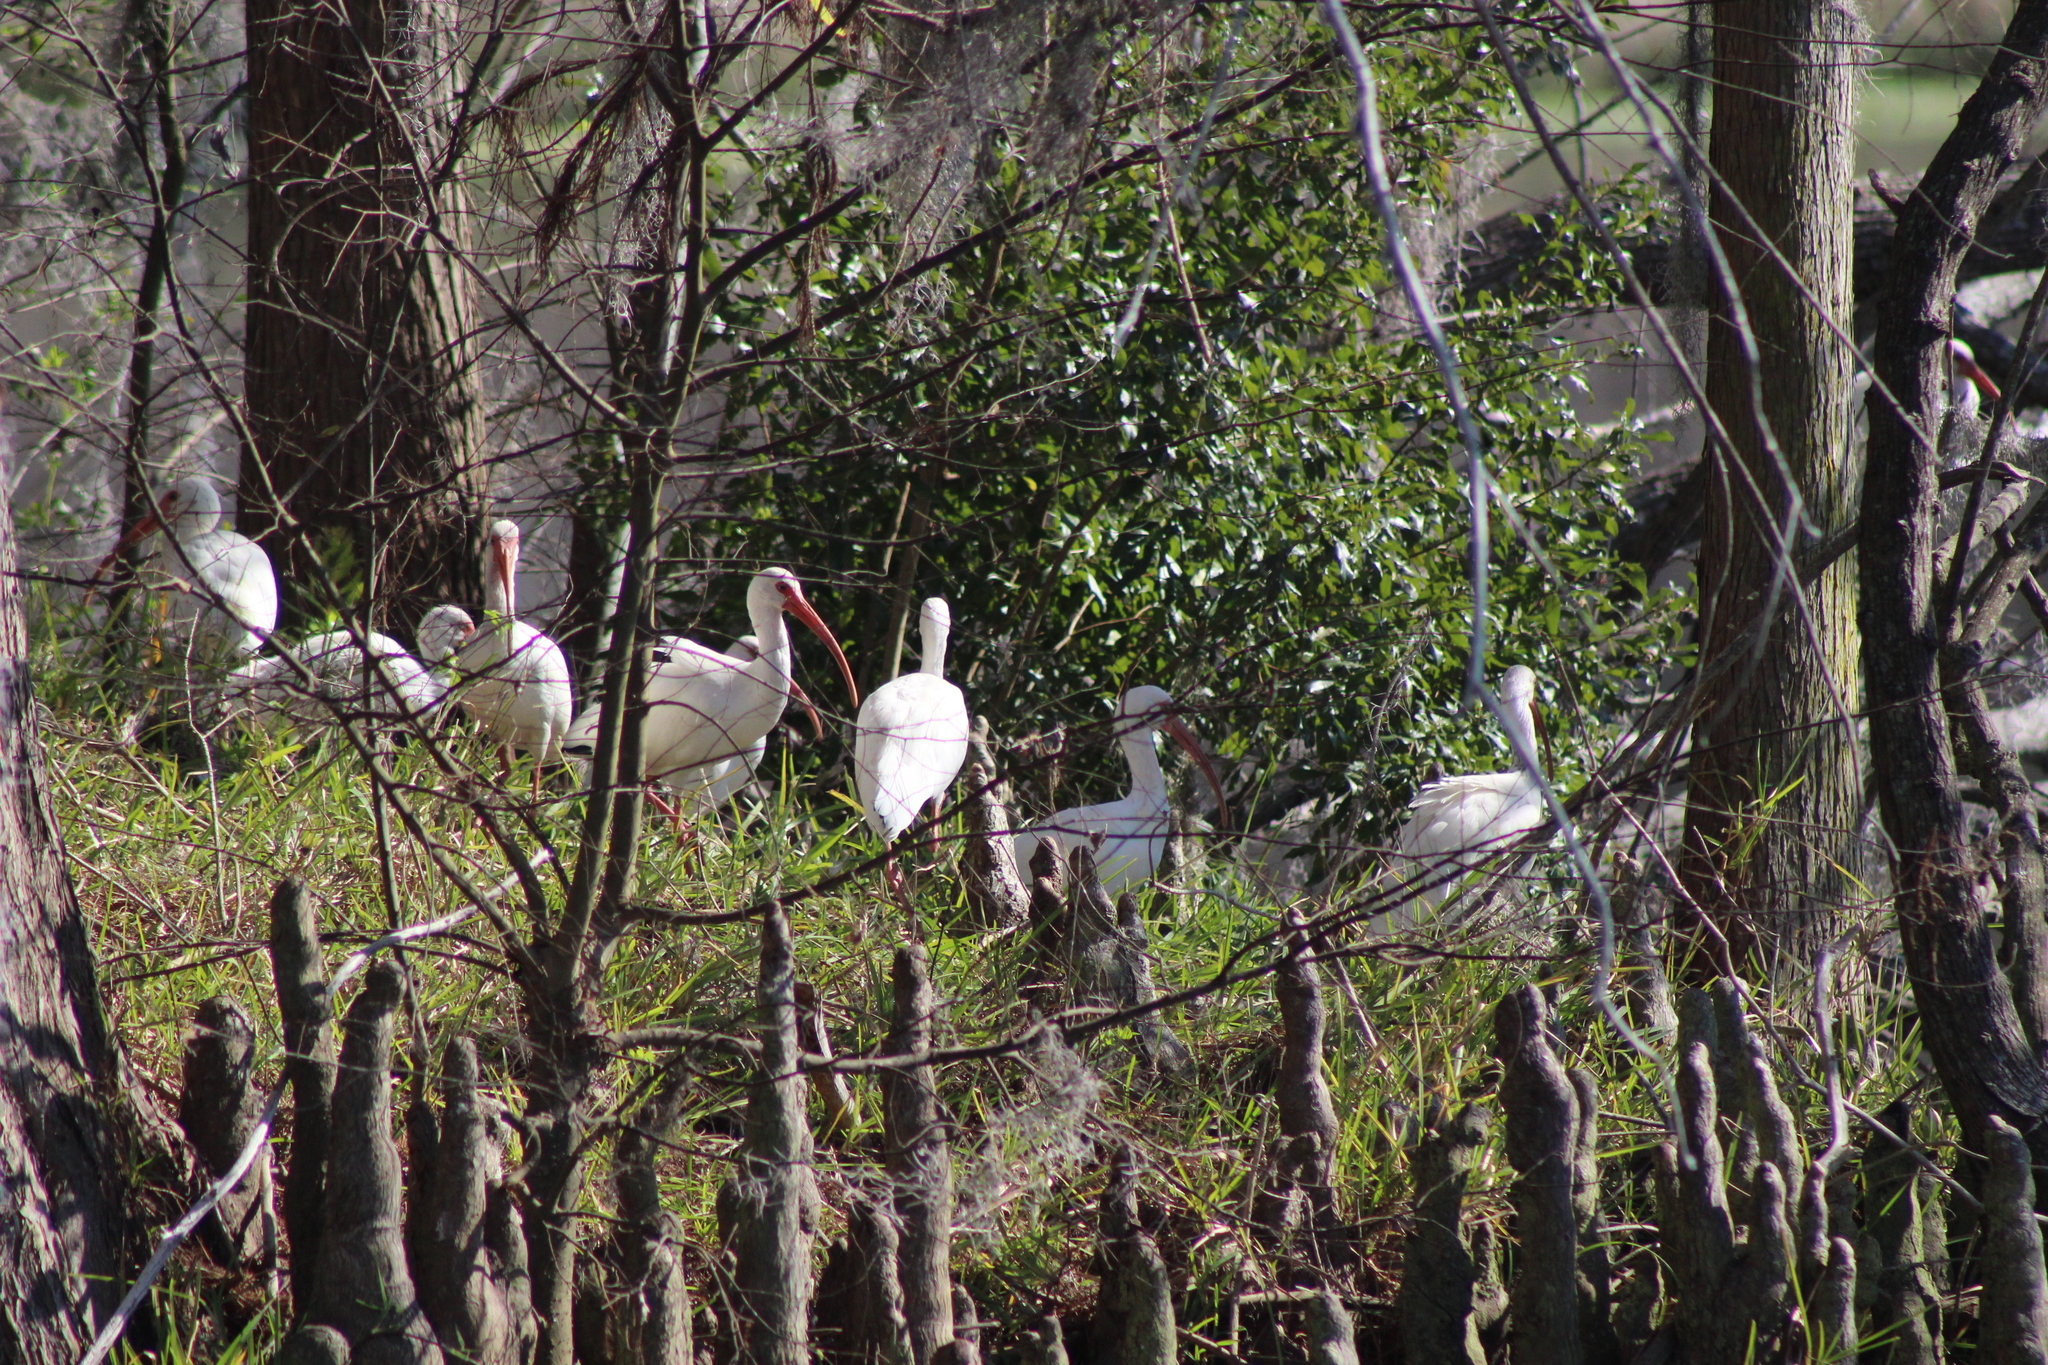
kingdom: Animalia
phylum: Chordata
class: Aves
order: Pelecaniformes
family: Threskiornithidae
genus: Eudocimus
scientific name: Eudocimus albus
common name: White ibis
